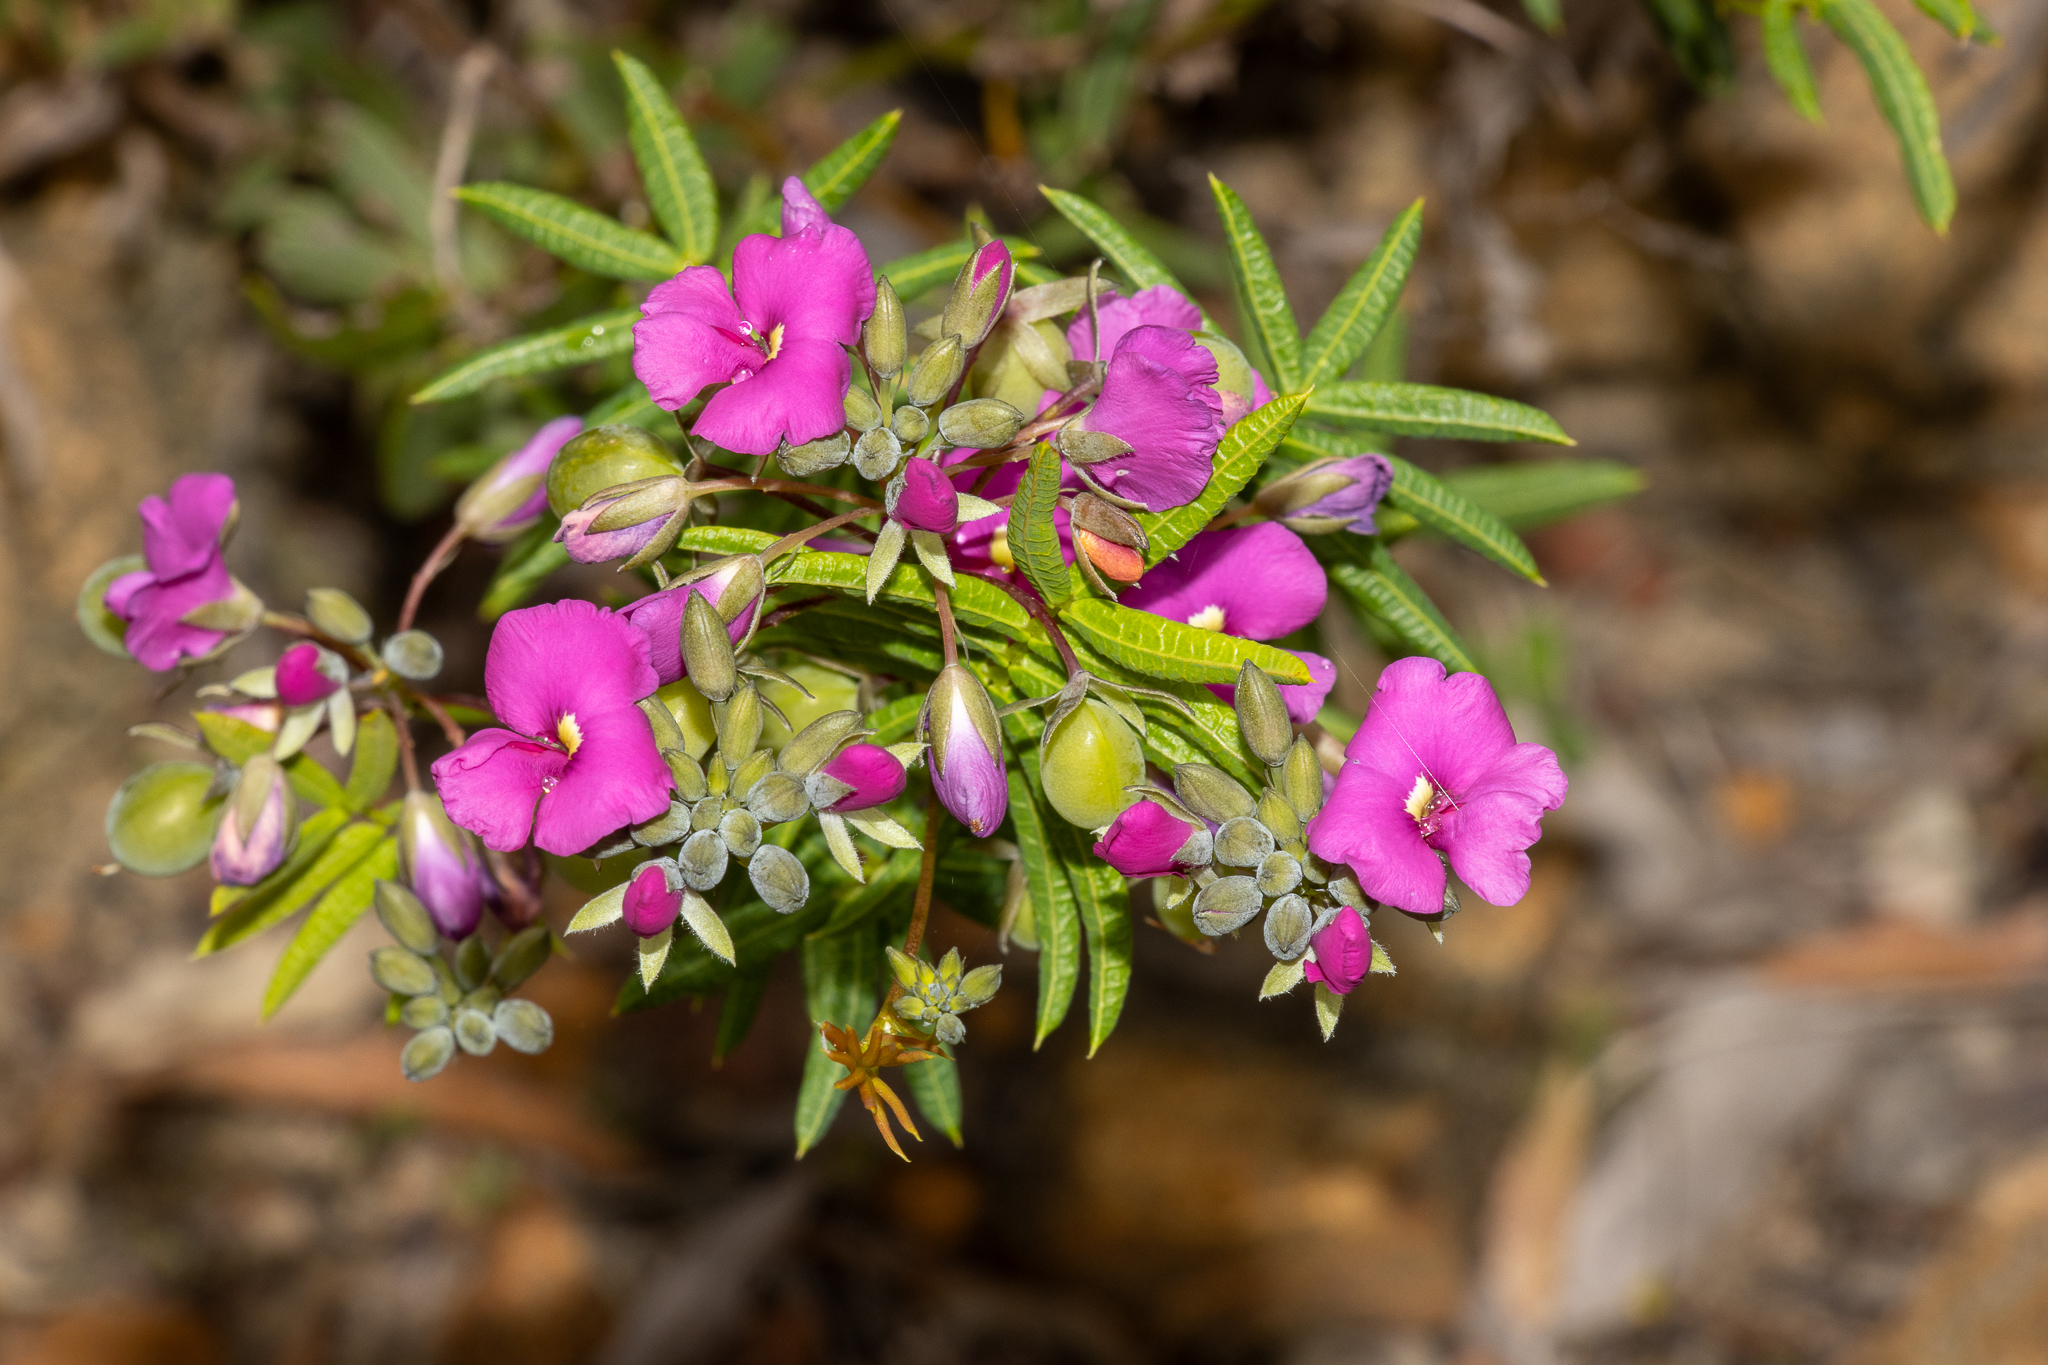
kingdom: Plantae
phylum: Tracheophyta
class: Magnoliopsida
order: Fabales
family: Fabaceae
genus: Gompholobium
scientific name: Gompholobium knightianum
